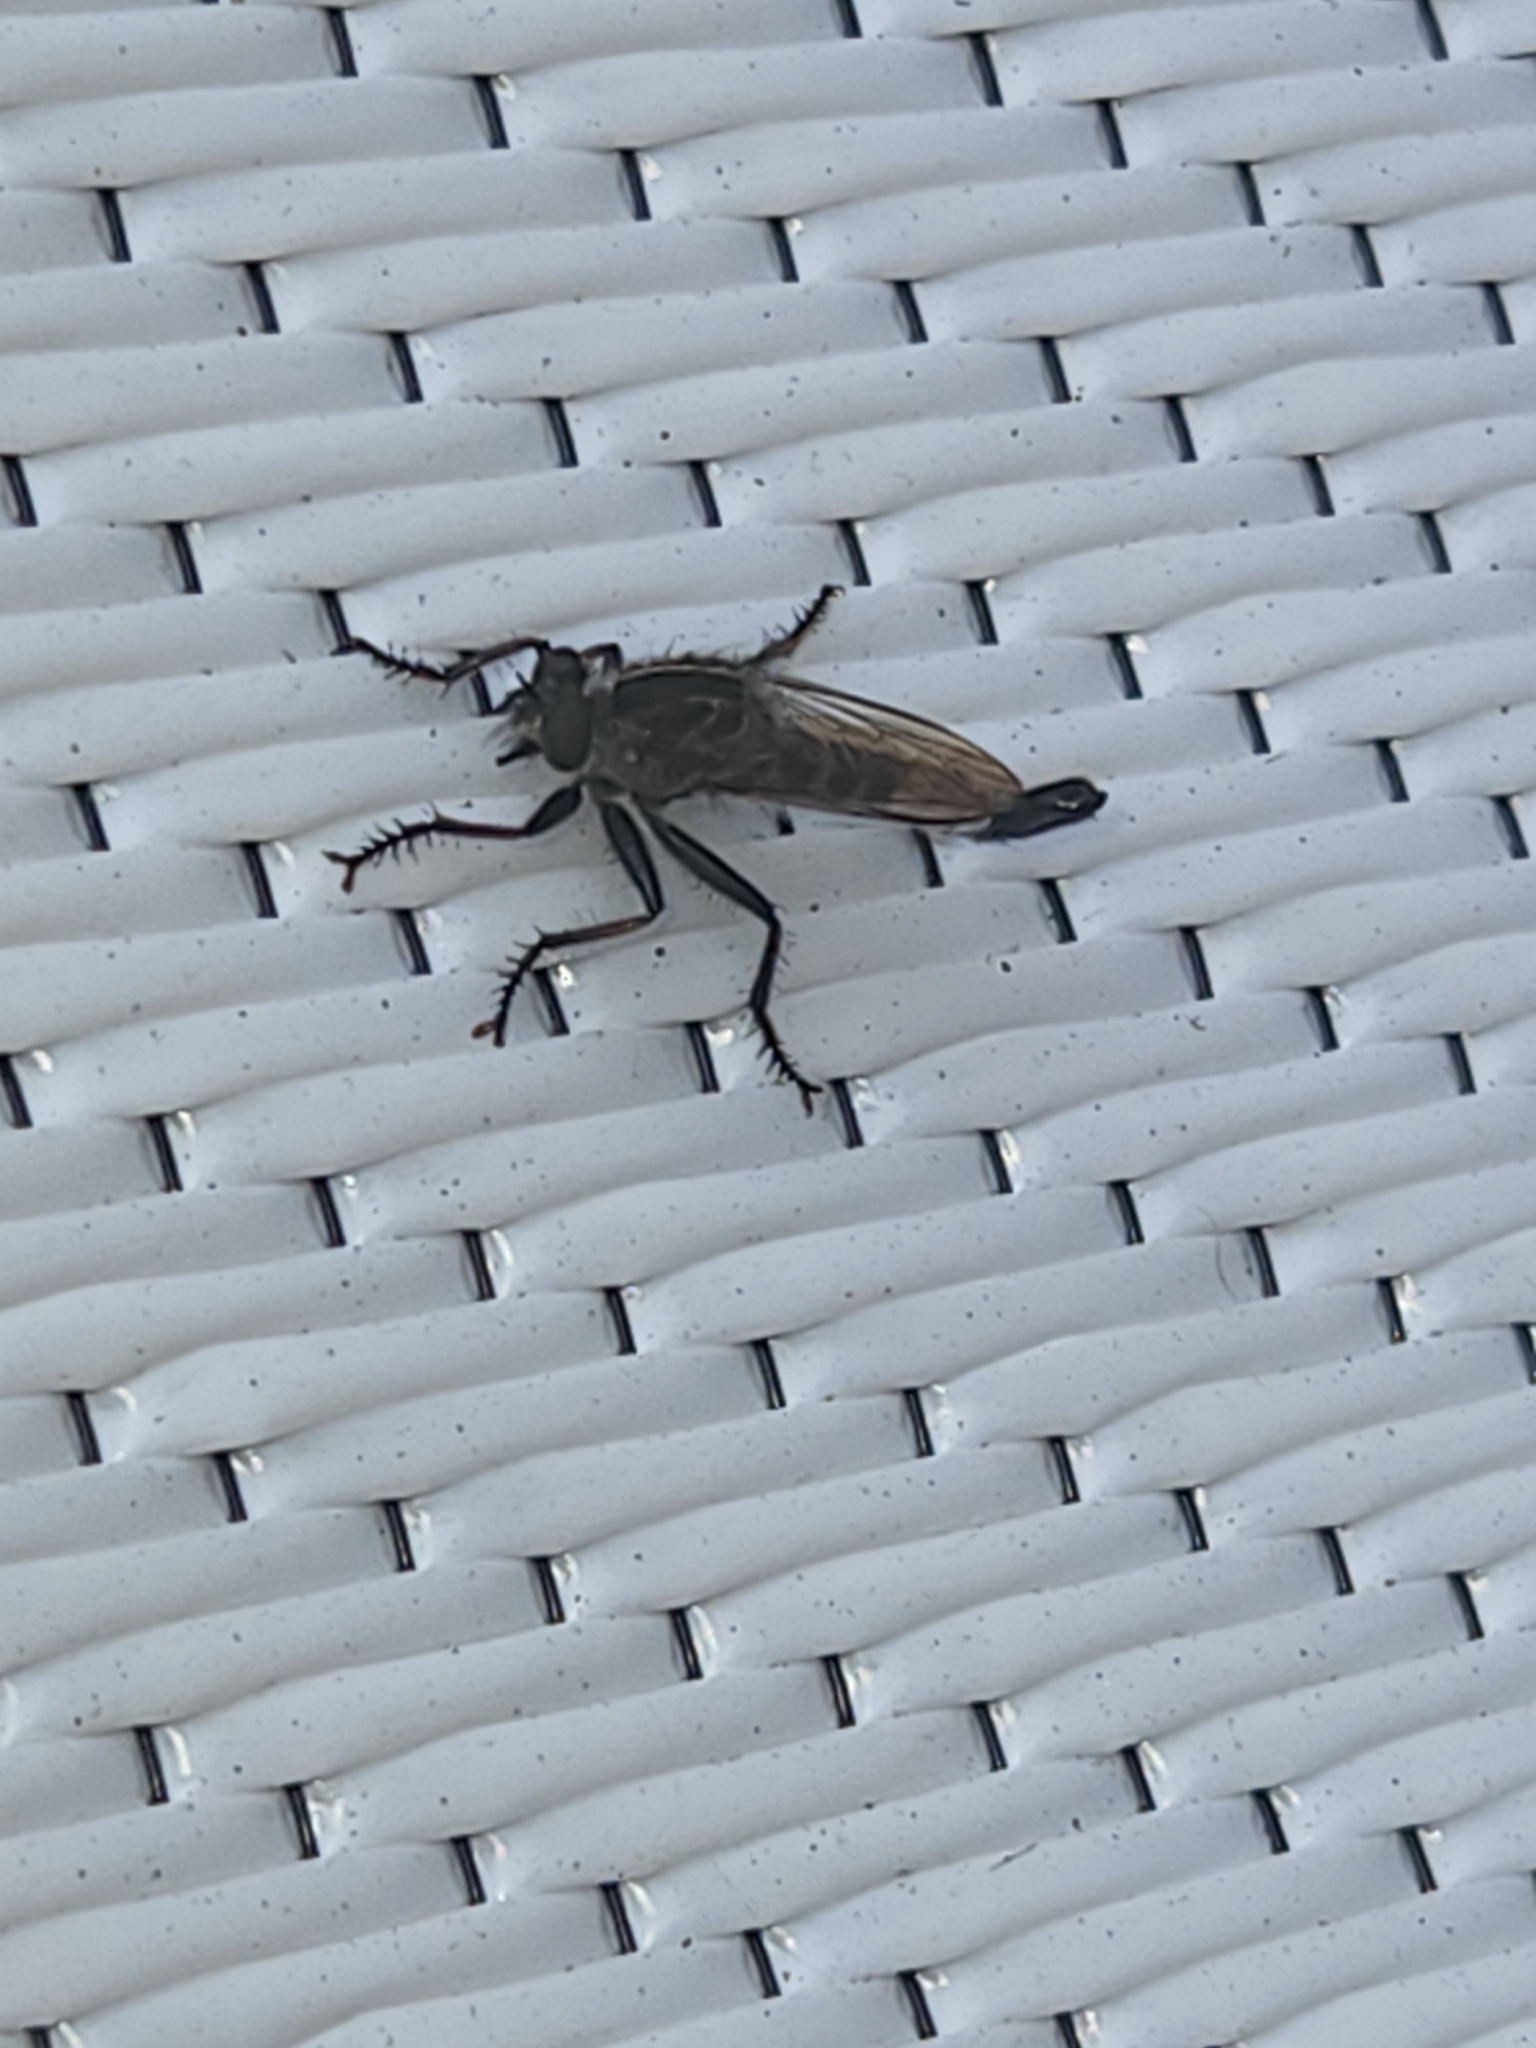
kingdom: Animalia
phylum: Arthropoda
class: Insecta
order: Diptera
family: Asilidae
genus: Efferia
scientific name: Efferia aestuans
